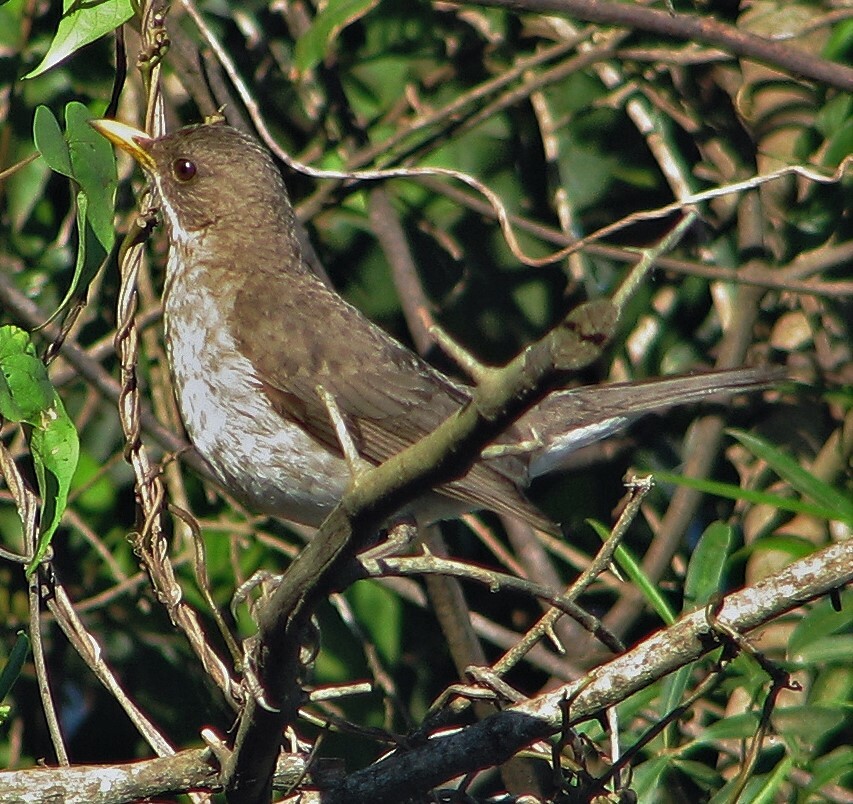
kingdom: Animalia
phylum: Chordata
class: Aves
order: Passeriformes
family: Turdidae
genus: Turdus
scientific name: Turdus amaurochalinus
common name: Creamy-bellied thrush
